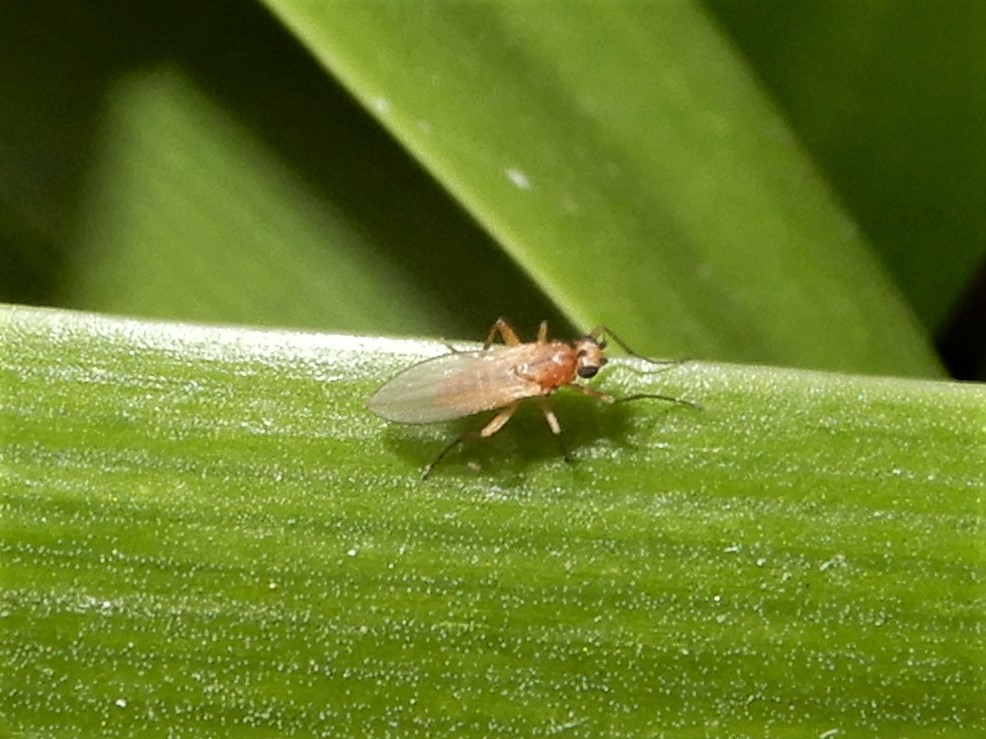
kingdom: Animalia
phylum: Arthropoda
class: Insecta
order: Diptera
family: Lonchopteridae
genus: Lonchoptera
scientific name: Lonchoptera bifurcata
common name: Spear-winged fly
